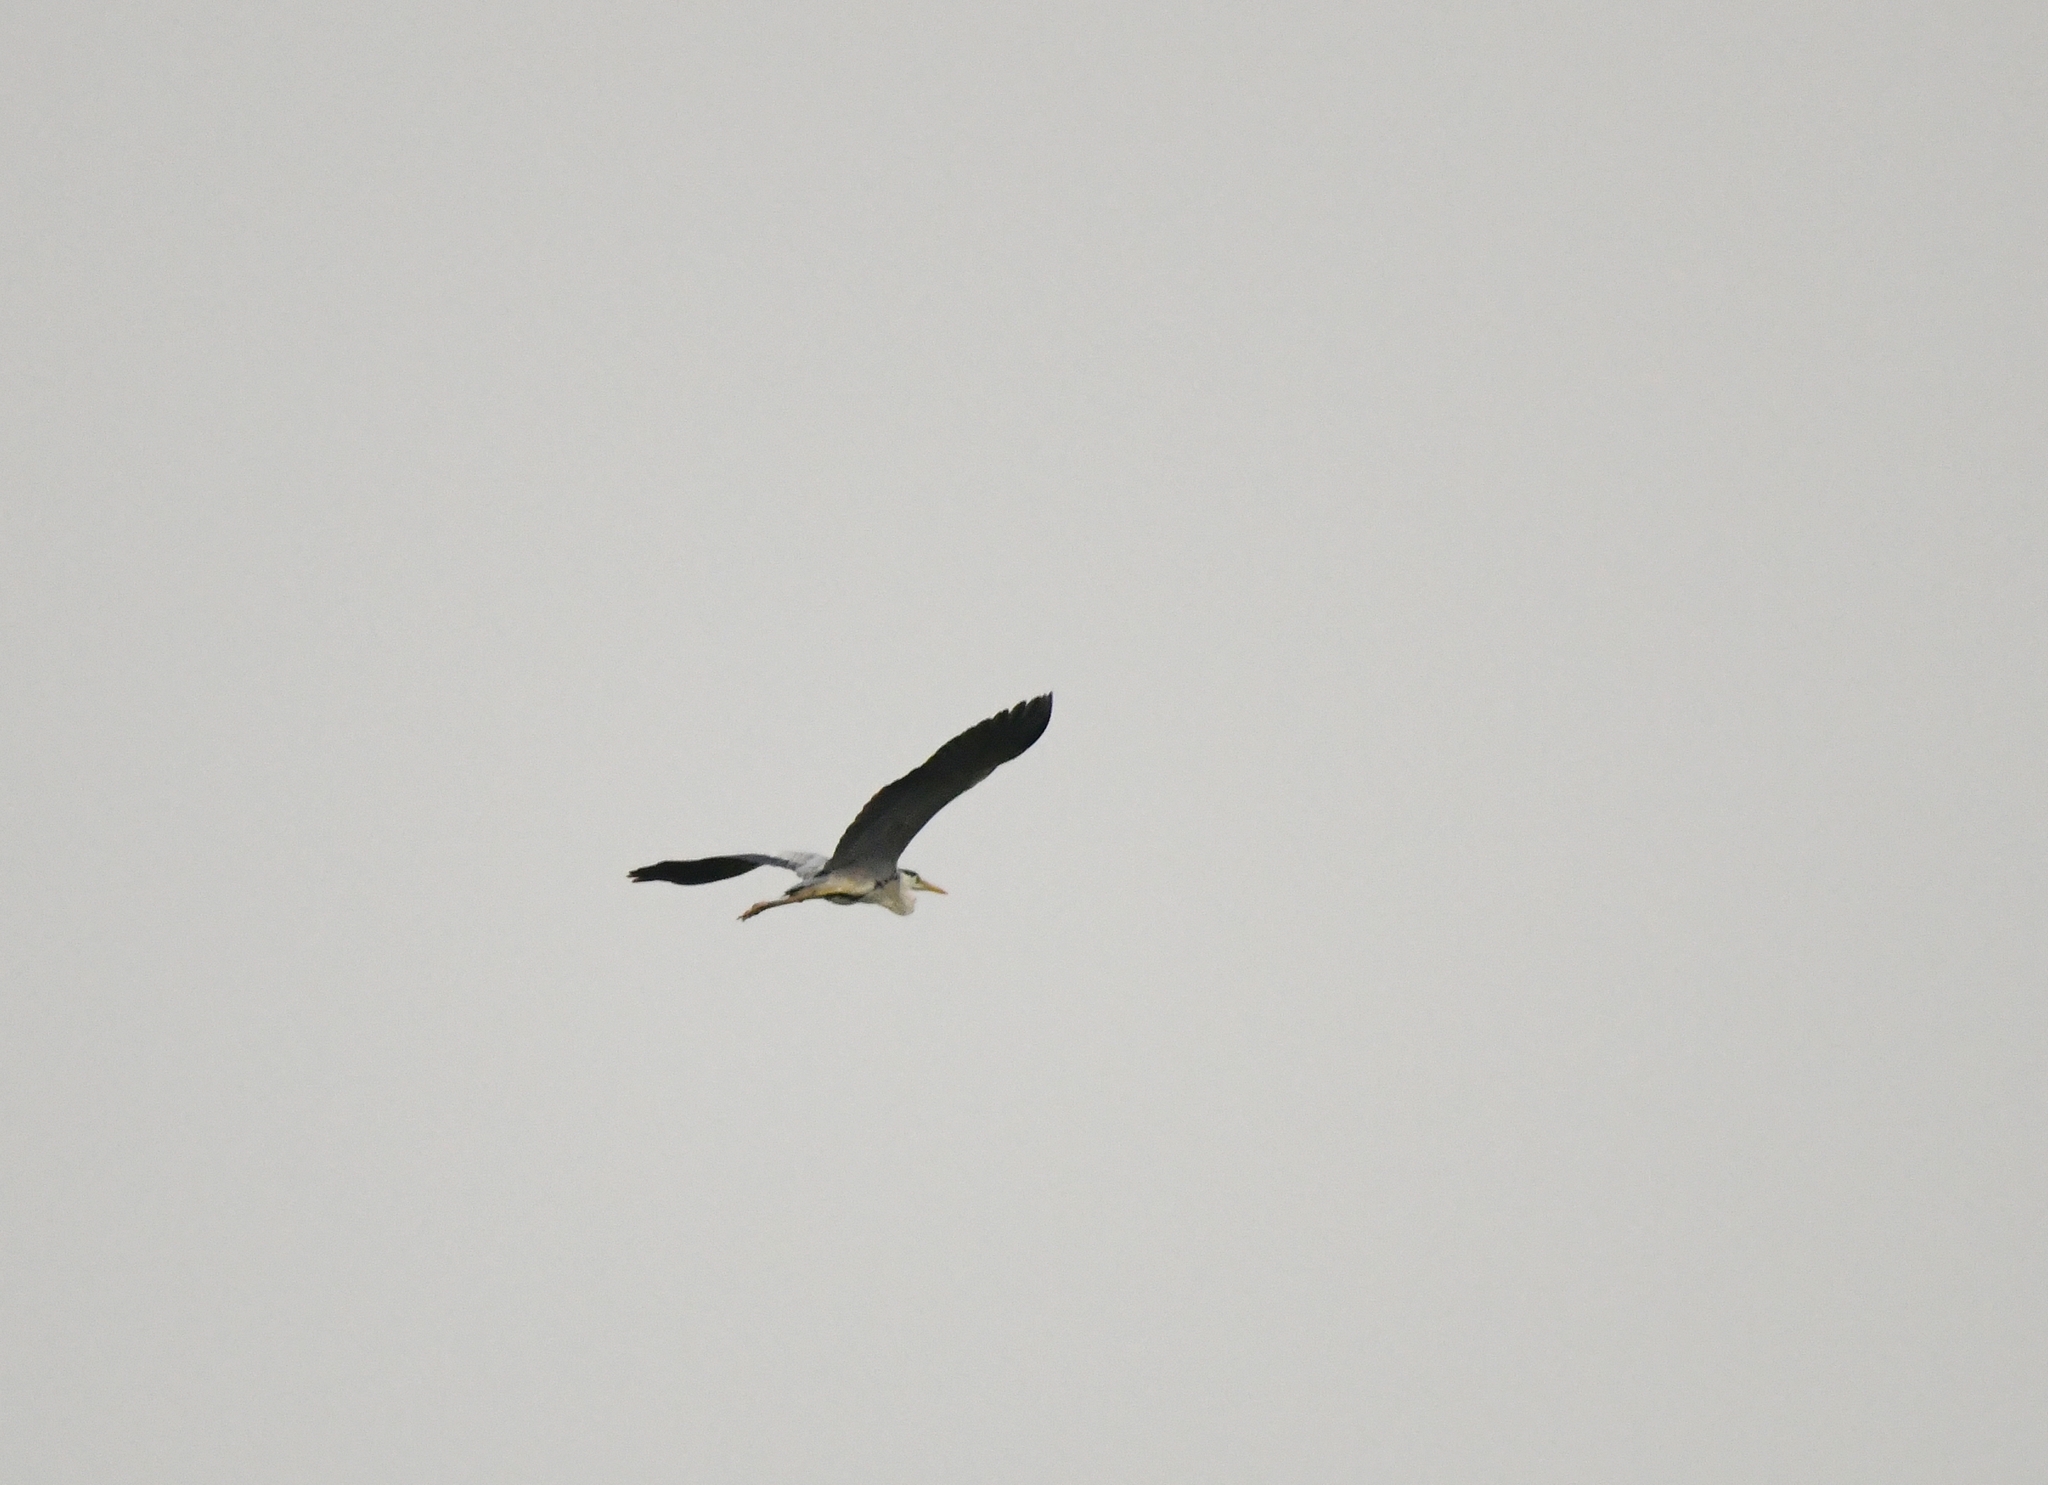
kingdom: Animalia
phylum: Chordata
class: Aves
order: Pelecaniformes
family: Ardeidae
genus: Ardea
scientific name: Ardea cinerea
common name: Grey heron
